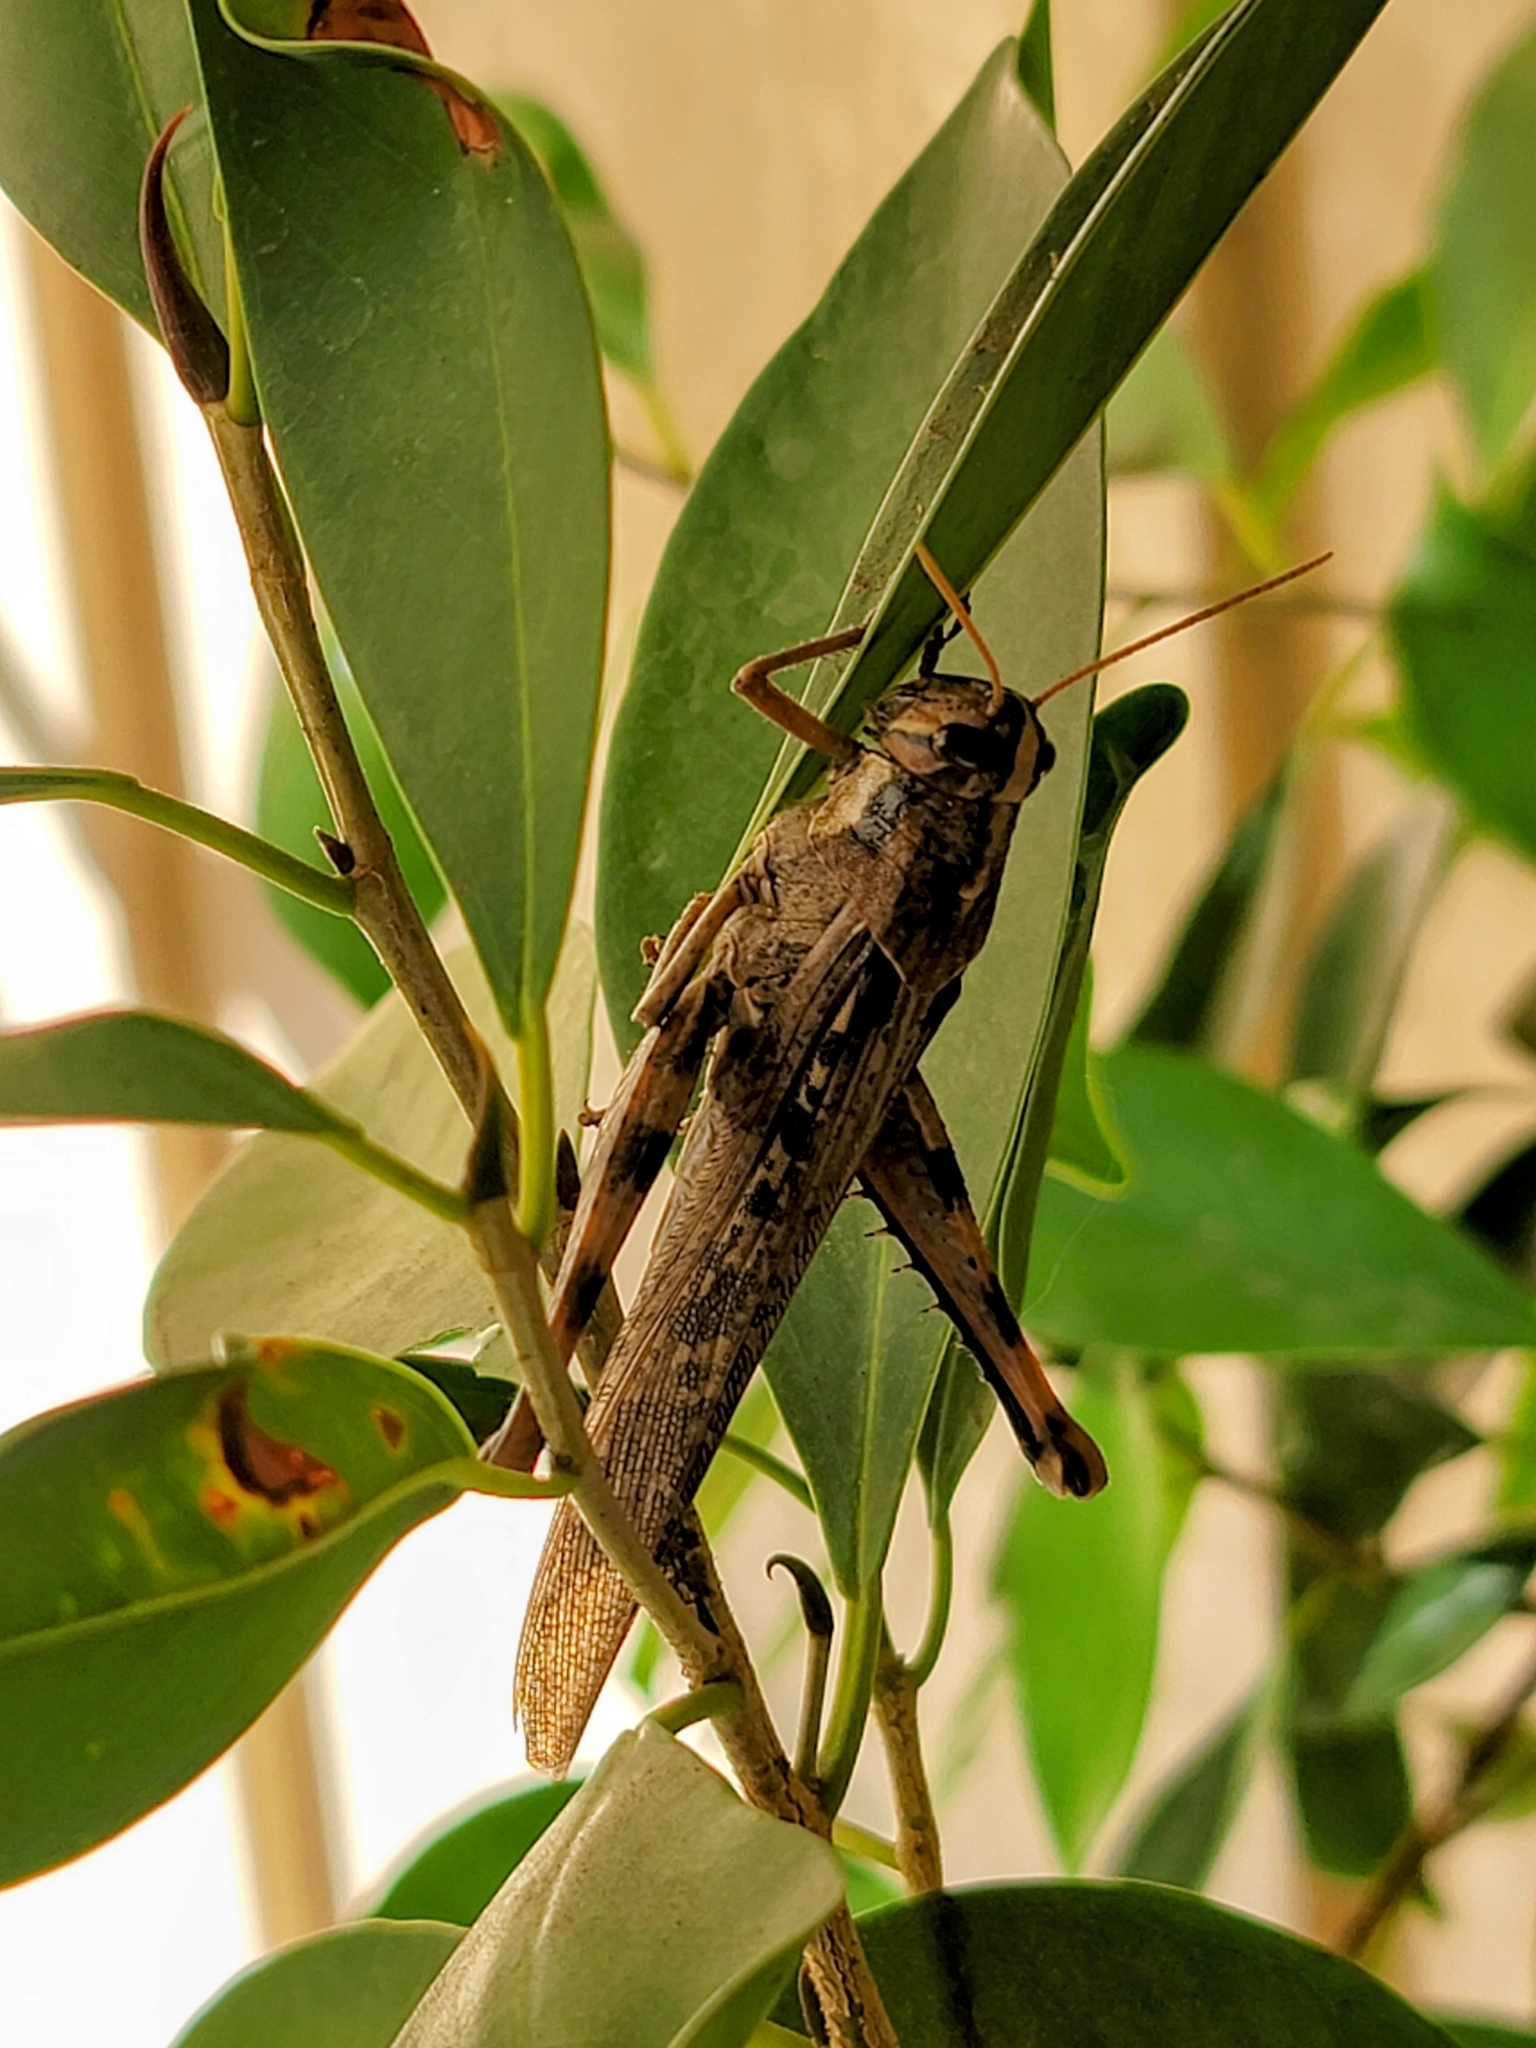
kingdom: Animalia
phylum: Arthropoda
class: Insecta
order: Orthoptera
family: Acrididae
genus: Schistocerca
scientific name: Schistocerca nitens
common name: Vagrant grasshopper
